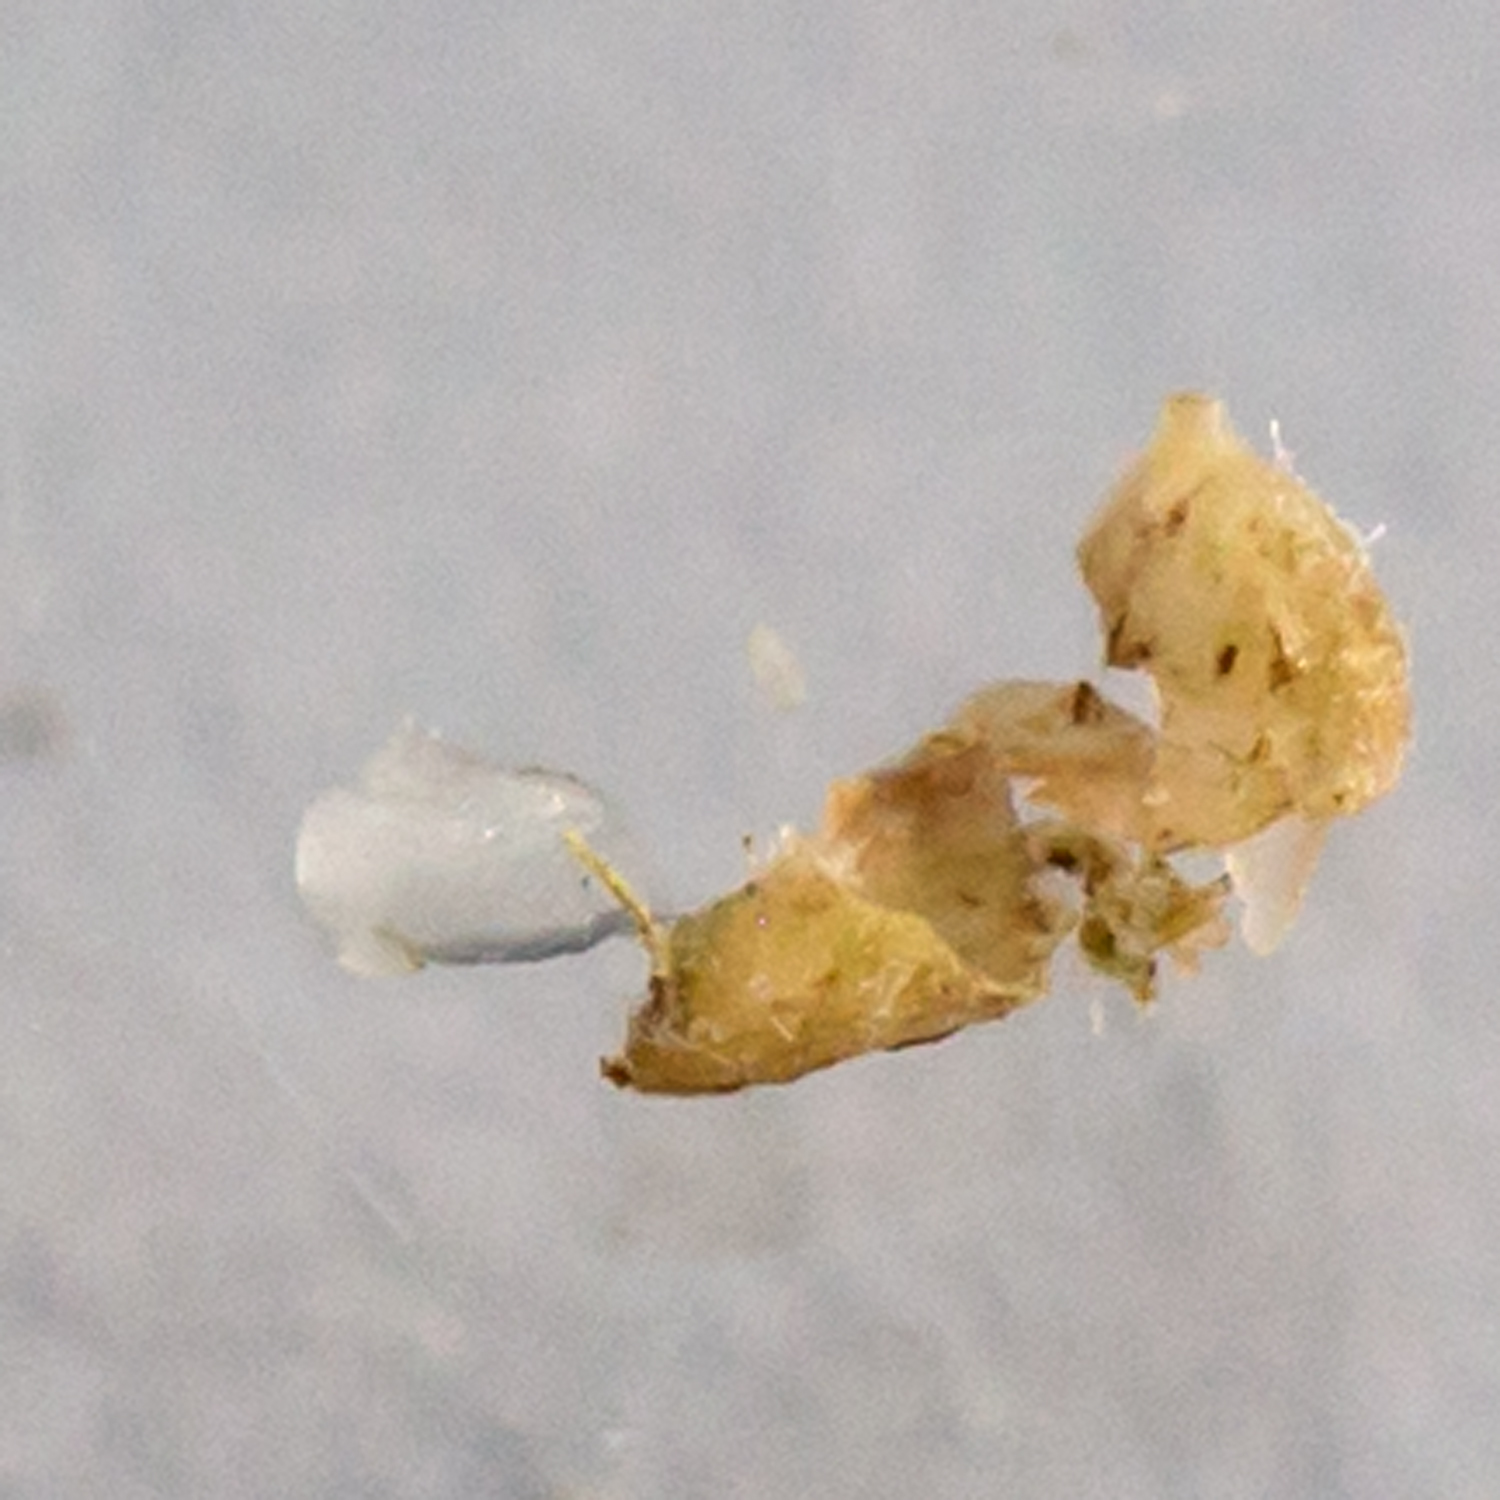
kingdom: Plantae
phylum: Tracheophyta
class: Magnoliopsida
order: Rosales
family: Urticaceae
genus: Pilea
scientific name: Pilea pumila
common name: Clearweed
